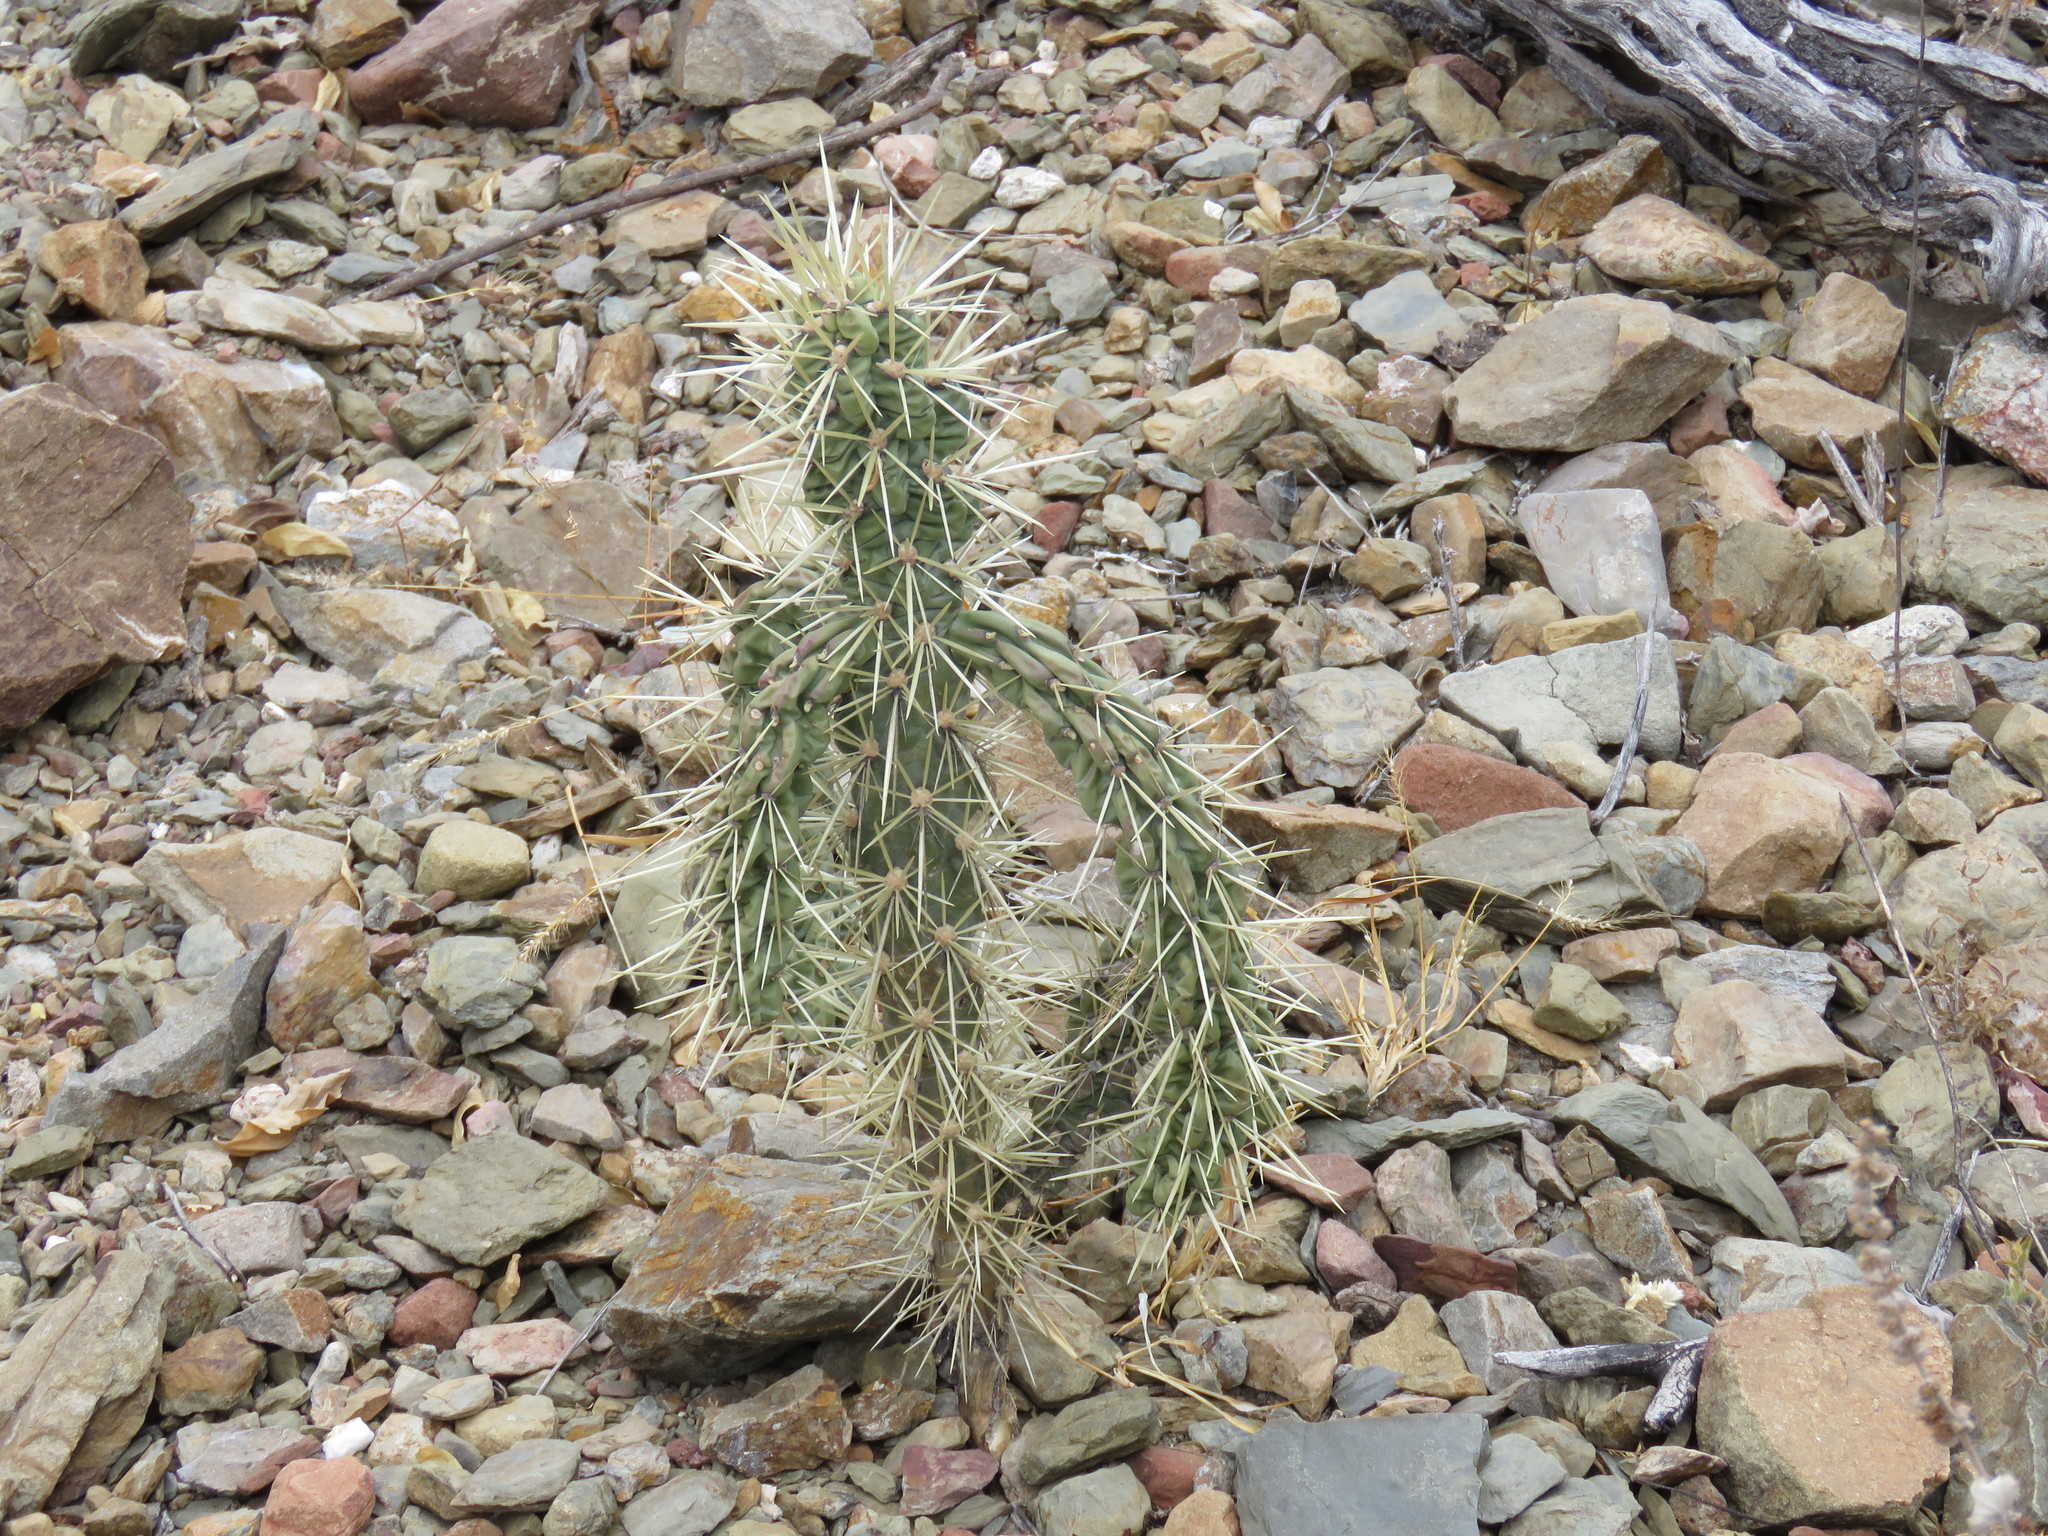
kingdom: Plantae
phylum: Tracheophyta
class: Magnoliopsida
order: Caryophyllales
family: Cactaceae
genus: Cylindropuntia
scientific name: Cylindropuntia imbricata
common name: Candelabrum cactus
